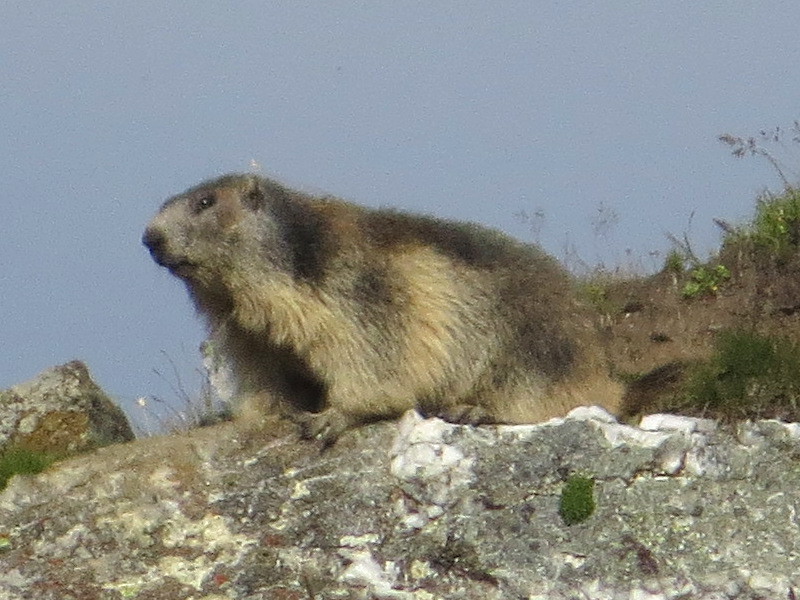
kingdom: Animalia
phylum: Chordata
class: Mammalia
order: Rodentia
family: Sciuridae
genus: Marmota
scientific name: Marmota marmota
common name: Alpine marmot
